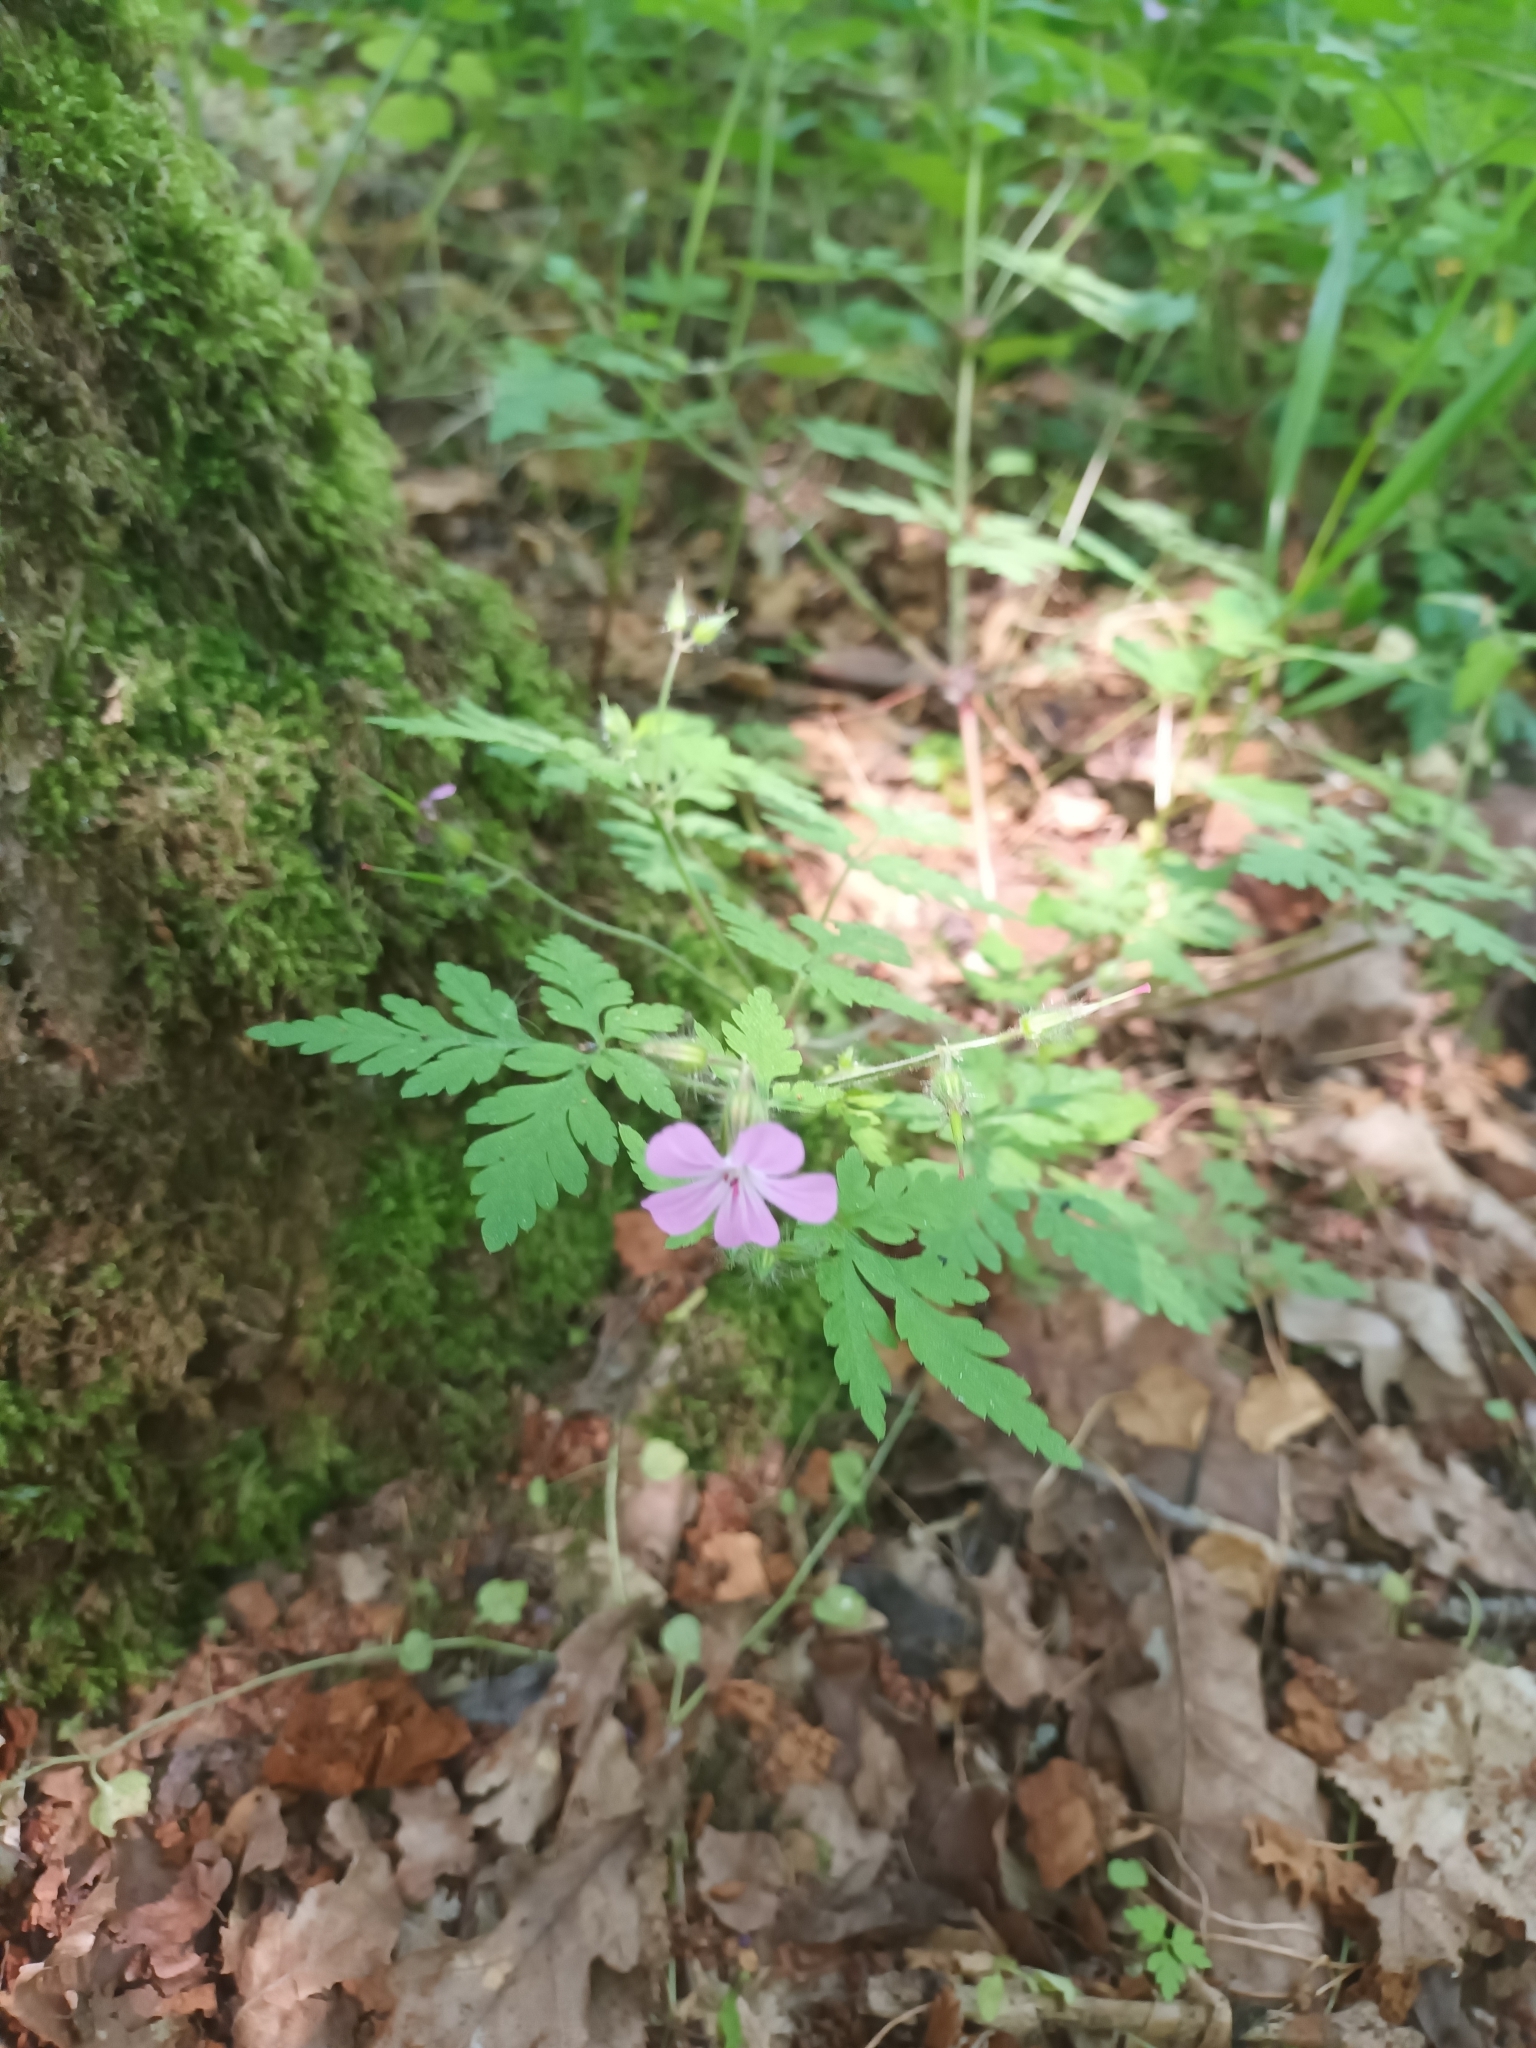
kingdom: Plantae
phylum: Tracheophyta
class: Magnoliopsida
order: Geraniales
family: Geraniaceae
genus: Geranium
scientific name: Geranium robertianum
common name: Herb-robert
